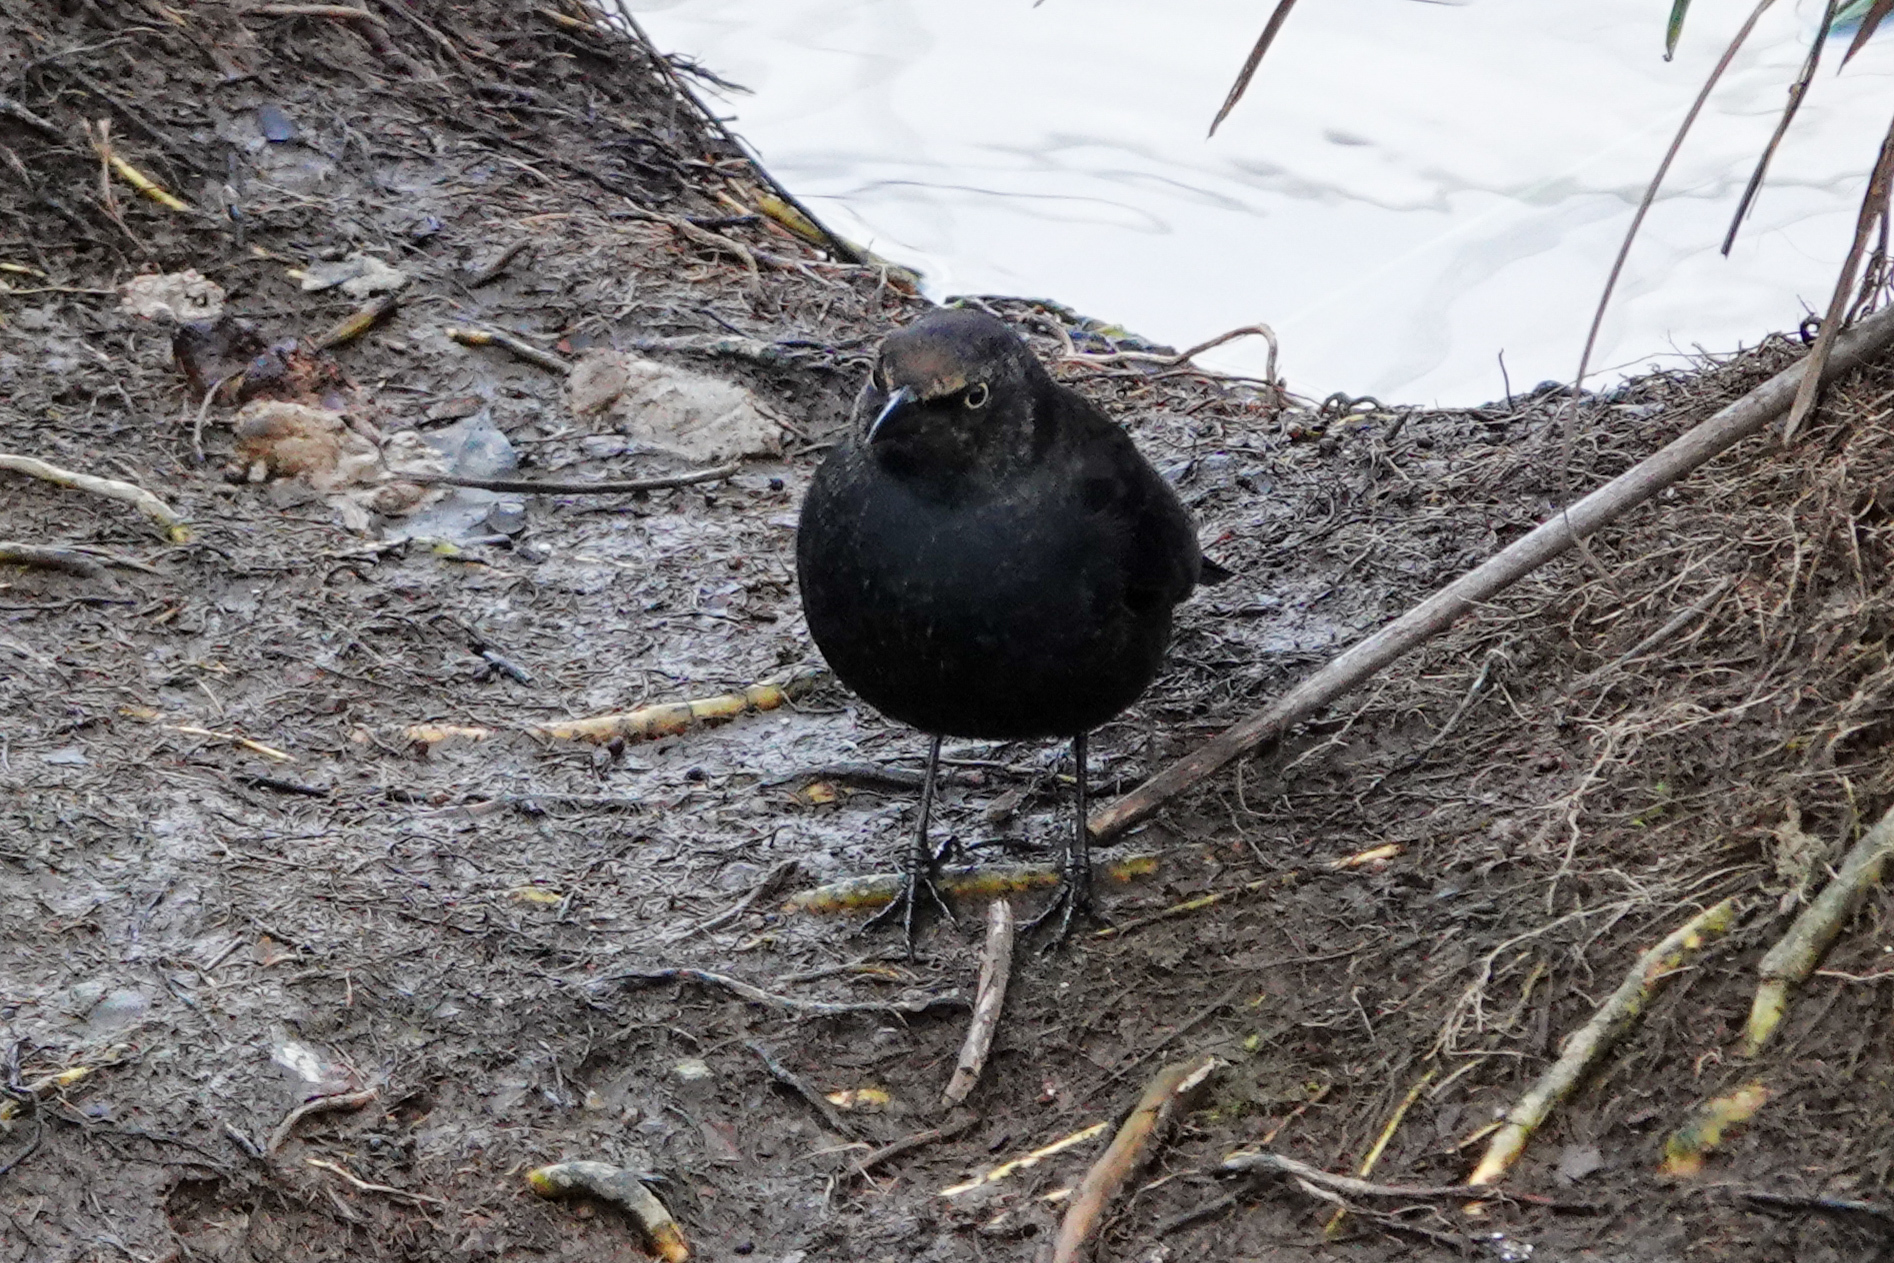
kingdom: Animalia
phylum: Chordata
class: Aves
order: Passeriformes
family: Icteridae
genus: Euphagus
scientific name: Euphagus carolinus
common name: Rusty blackbird
